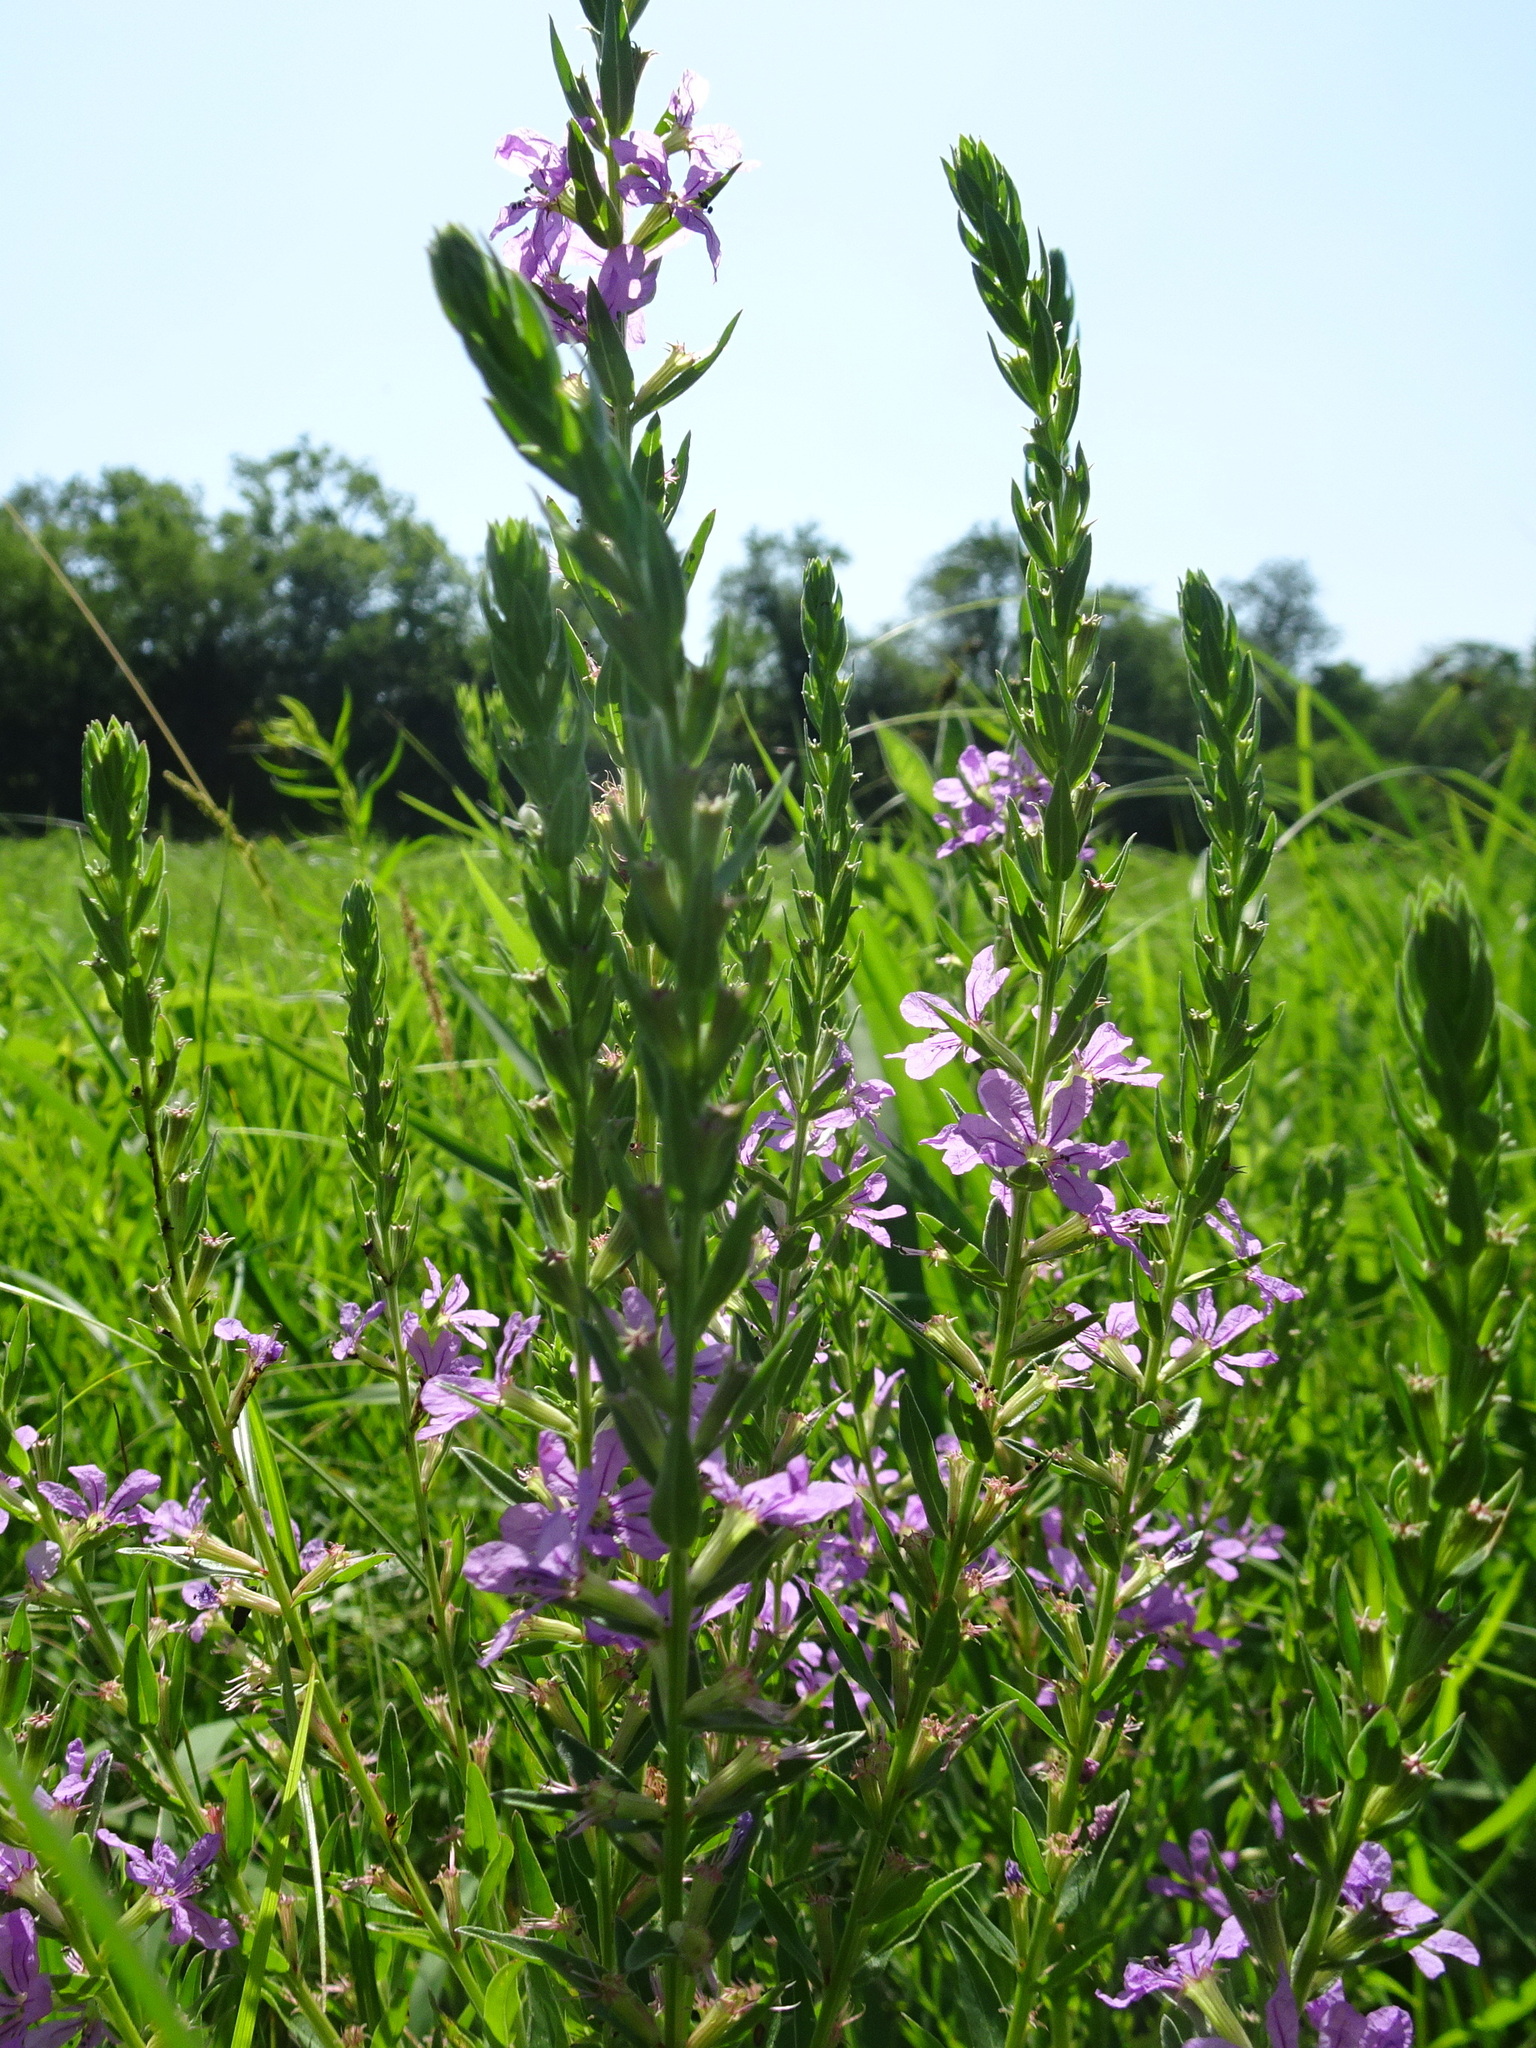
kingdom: Plantae
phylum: Tracheophyta
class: Magnoliopsida
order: Myrtales
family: Lythraceae
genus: Lythrum
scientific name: Lythrum alatum
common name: Winged loosestrife
